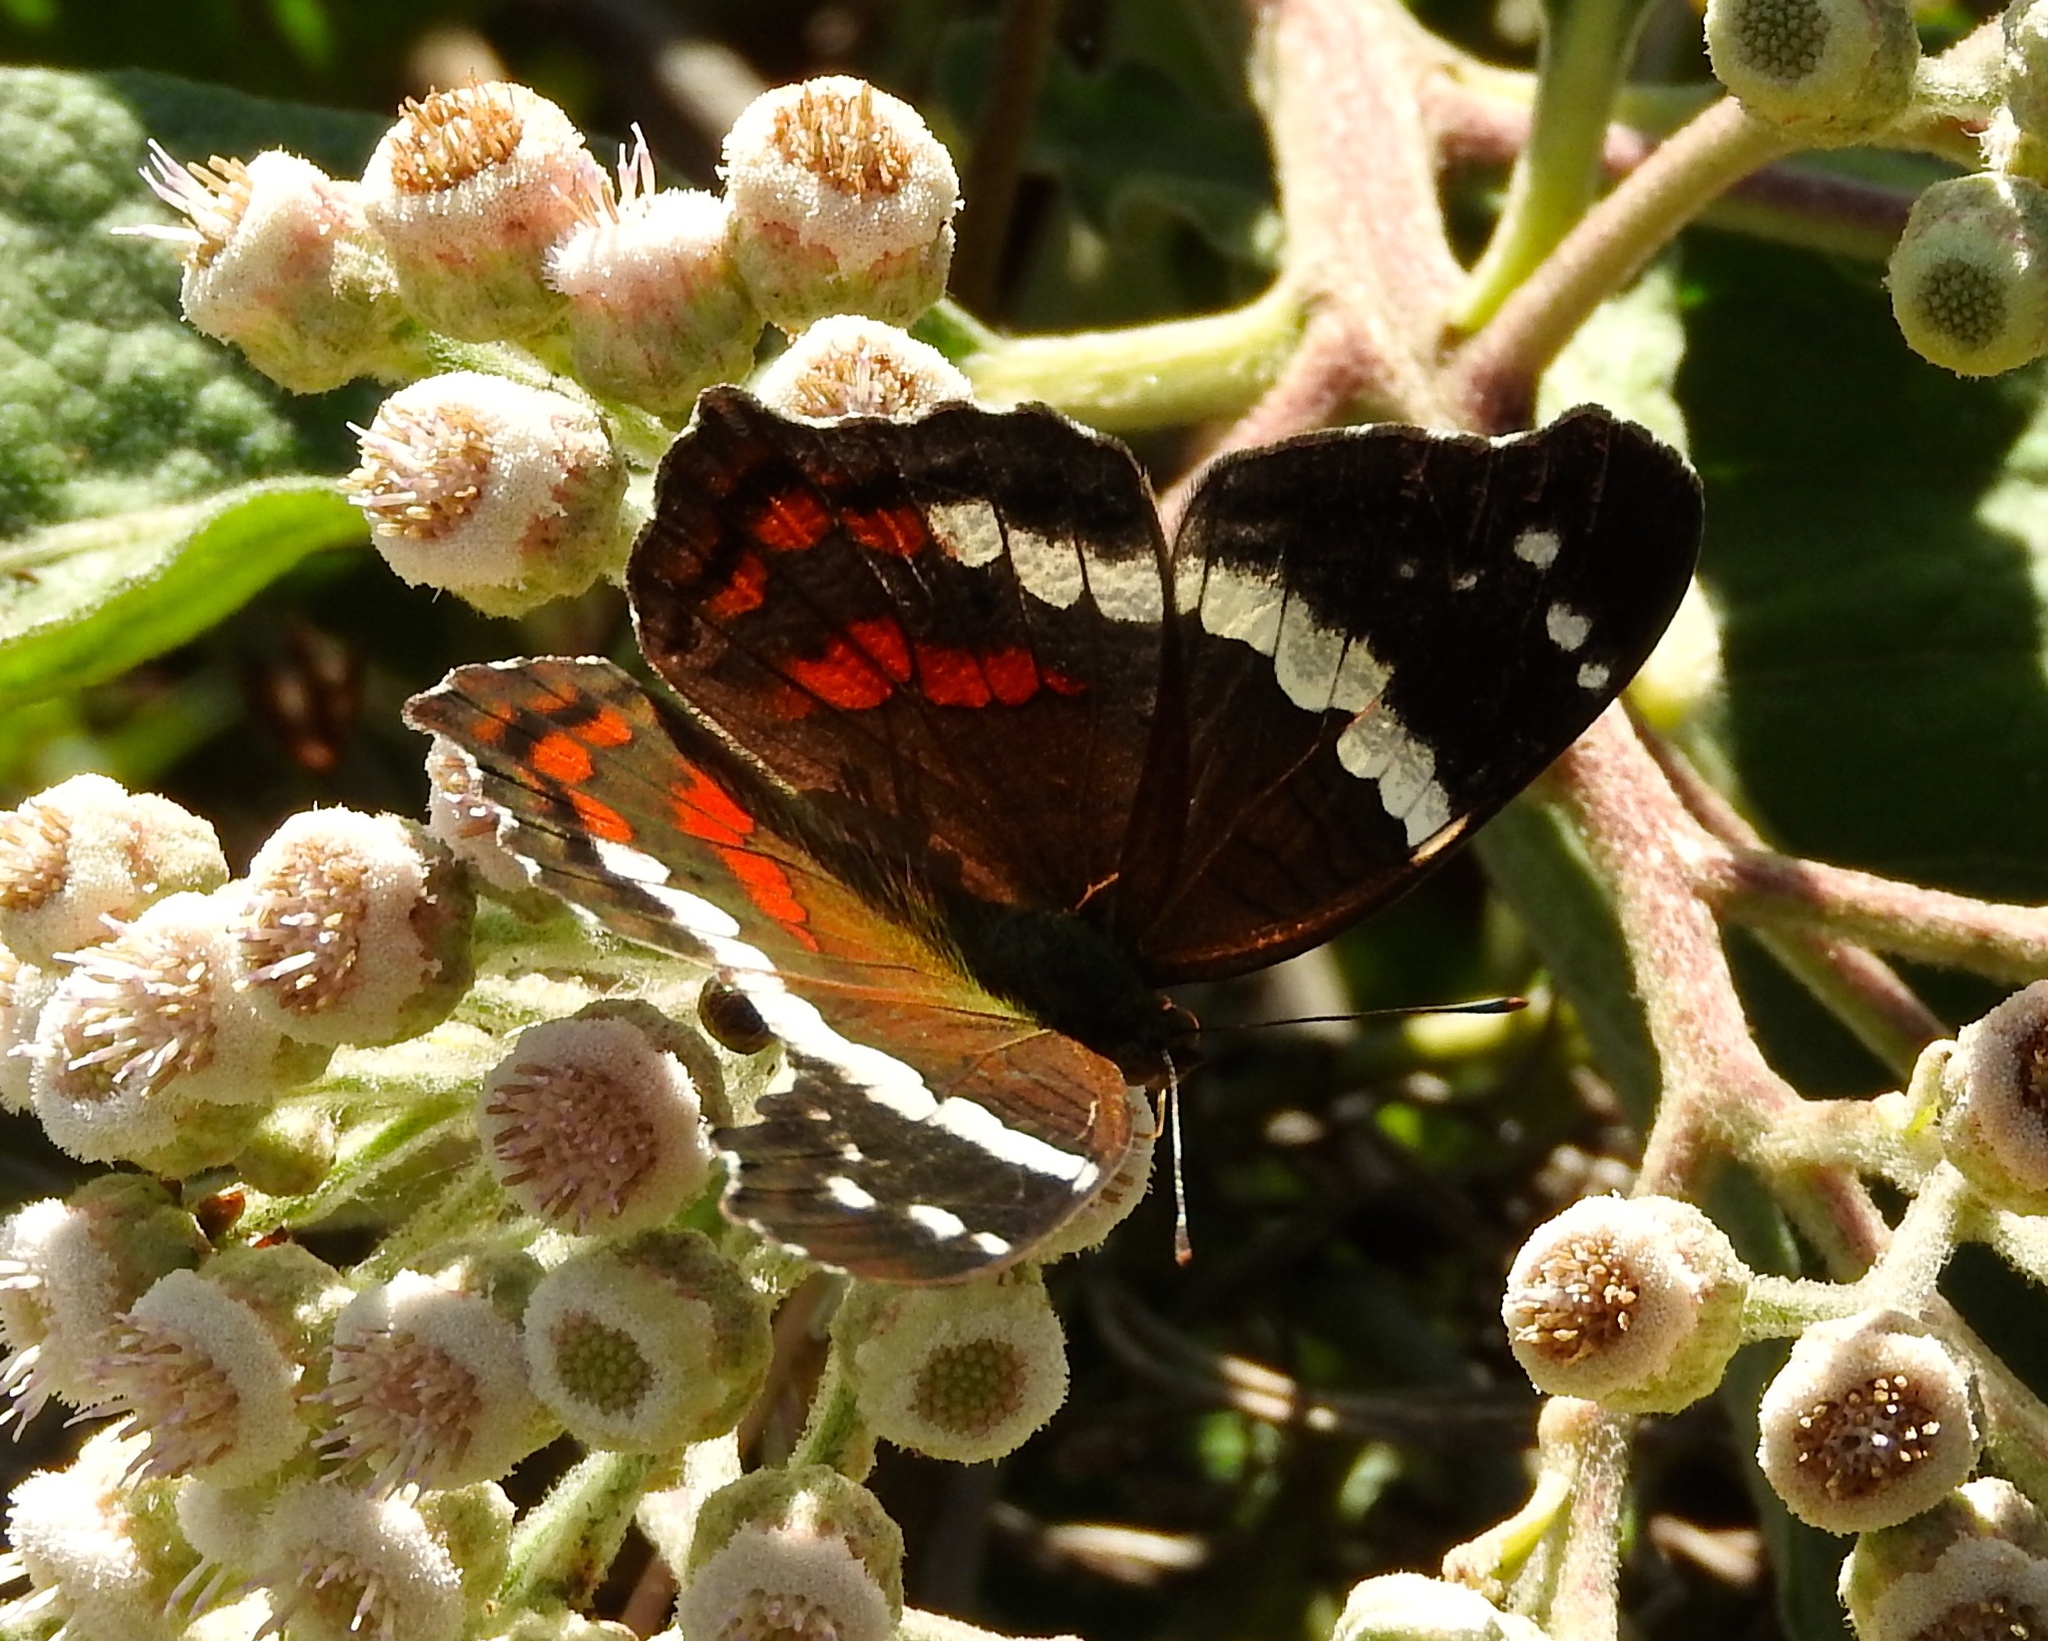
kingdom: Animalia
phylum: Arthropoda
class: Insecta
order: Lepidoptera
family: Nymphalidae
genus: Anartia
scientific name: Anartia fatima
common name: Banded peacock
